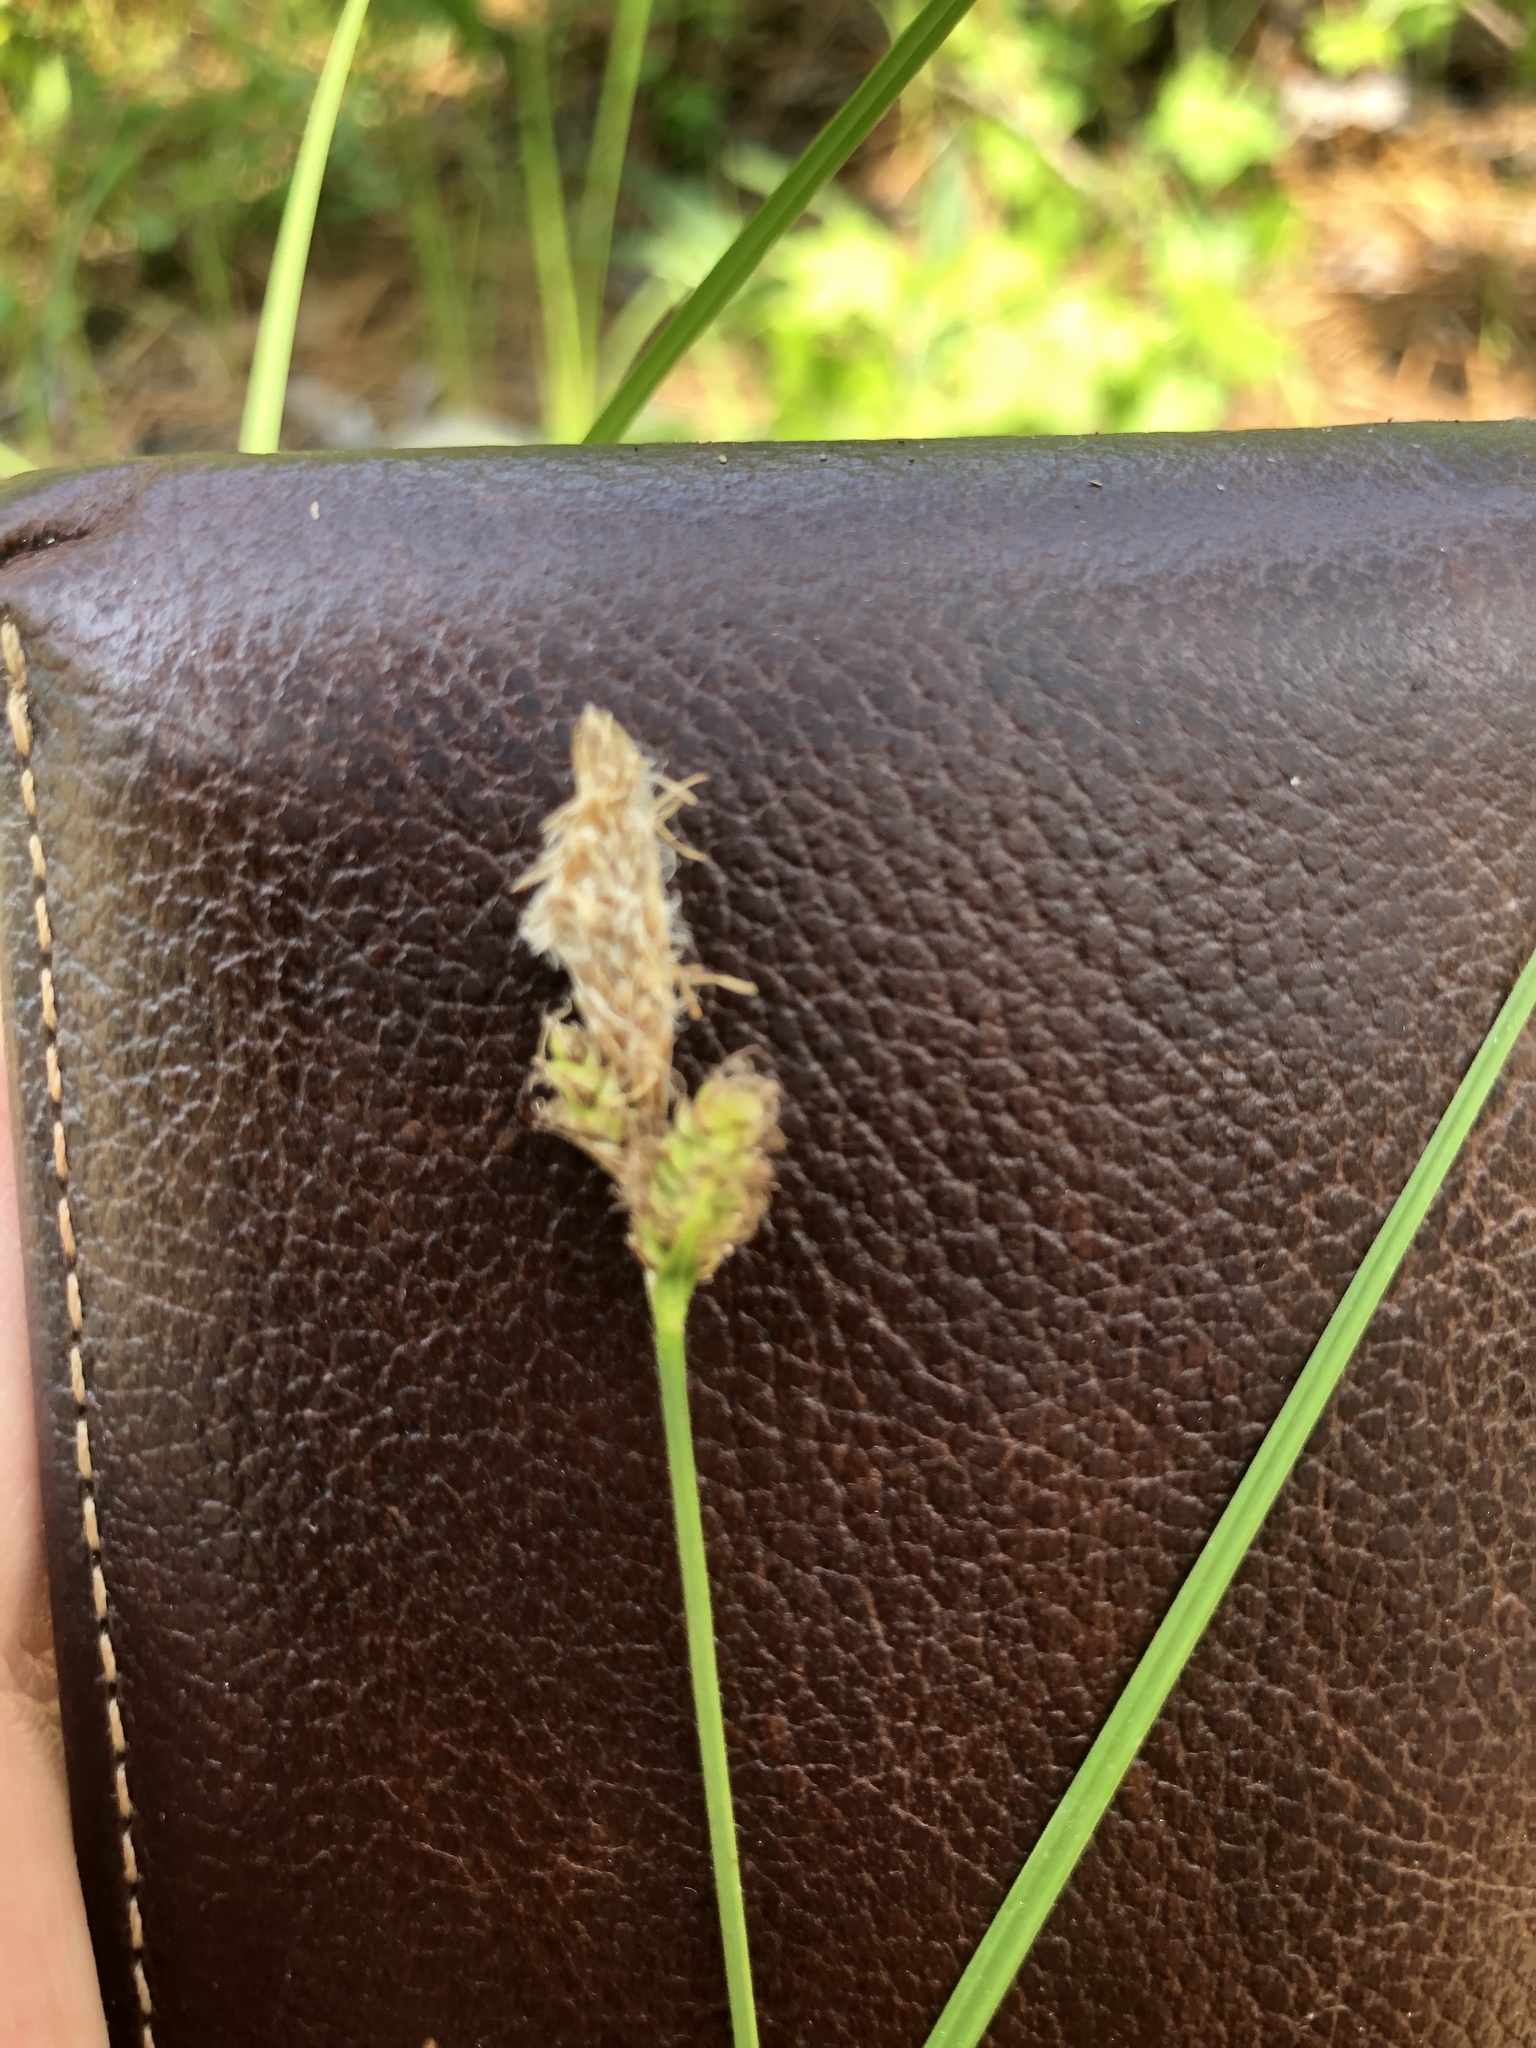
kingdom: Plantae
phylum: Tracheophyta
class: Liliopsida
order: Poales
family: Cyperaceae
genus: Carex
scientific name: Carex vestita
